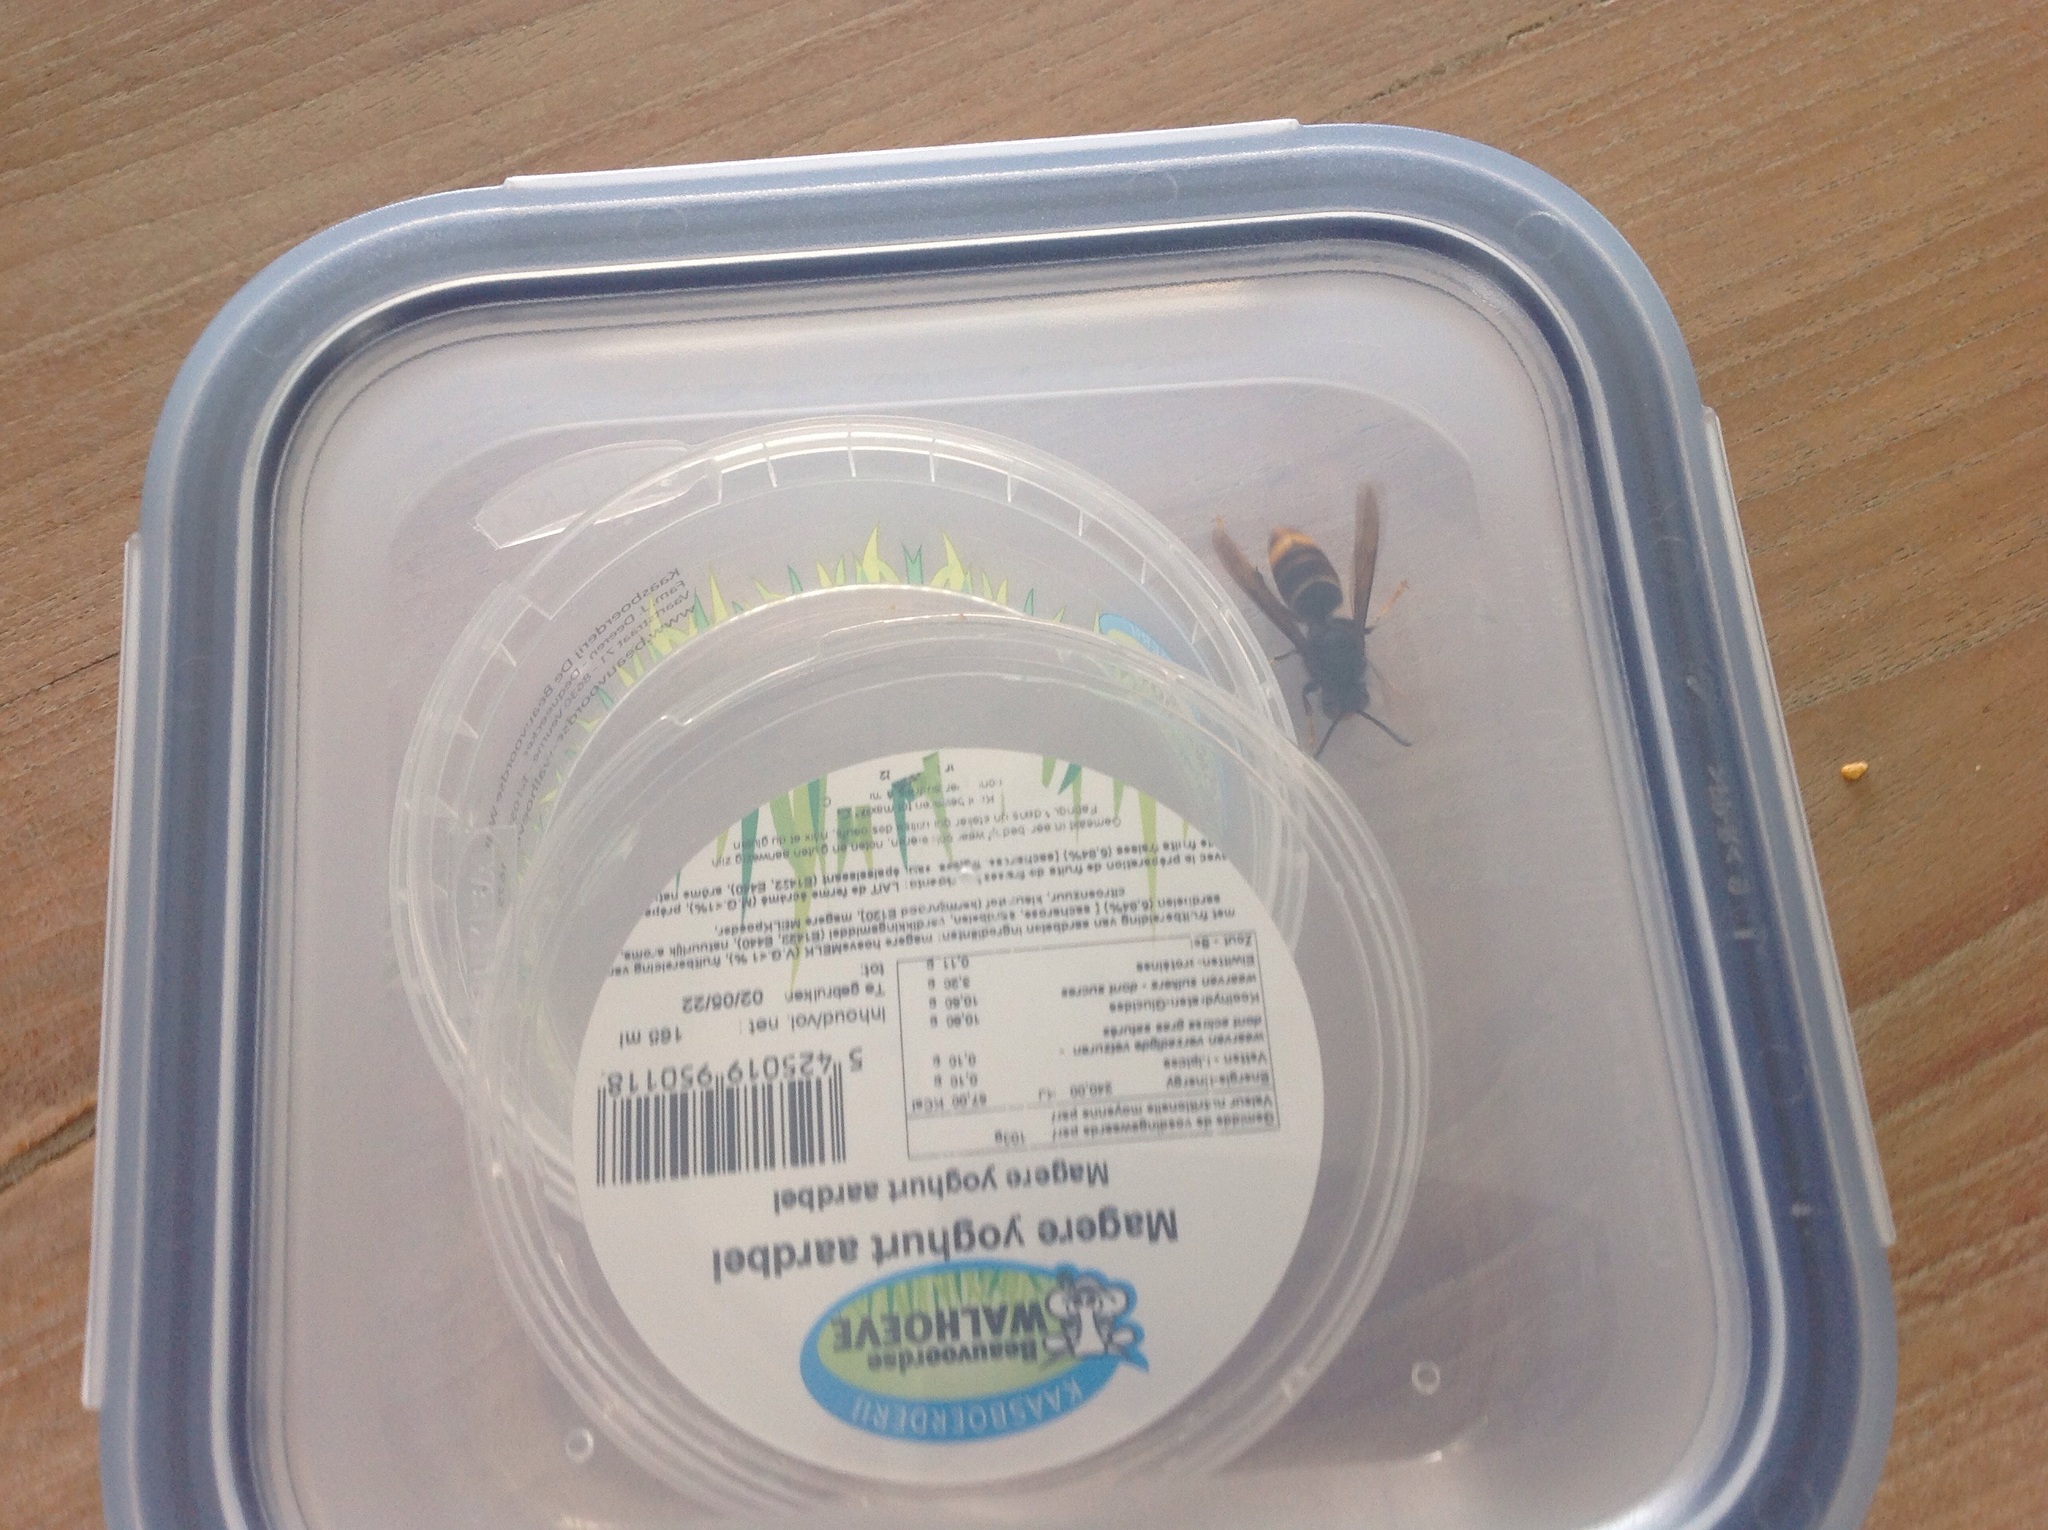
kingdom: Animalia
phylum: Arthropoda
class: Insecta
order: Hymenoptera
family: Vespidae
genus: Vespa
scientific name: Vespa velutina
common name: Asian hornet
